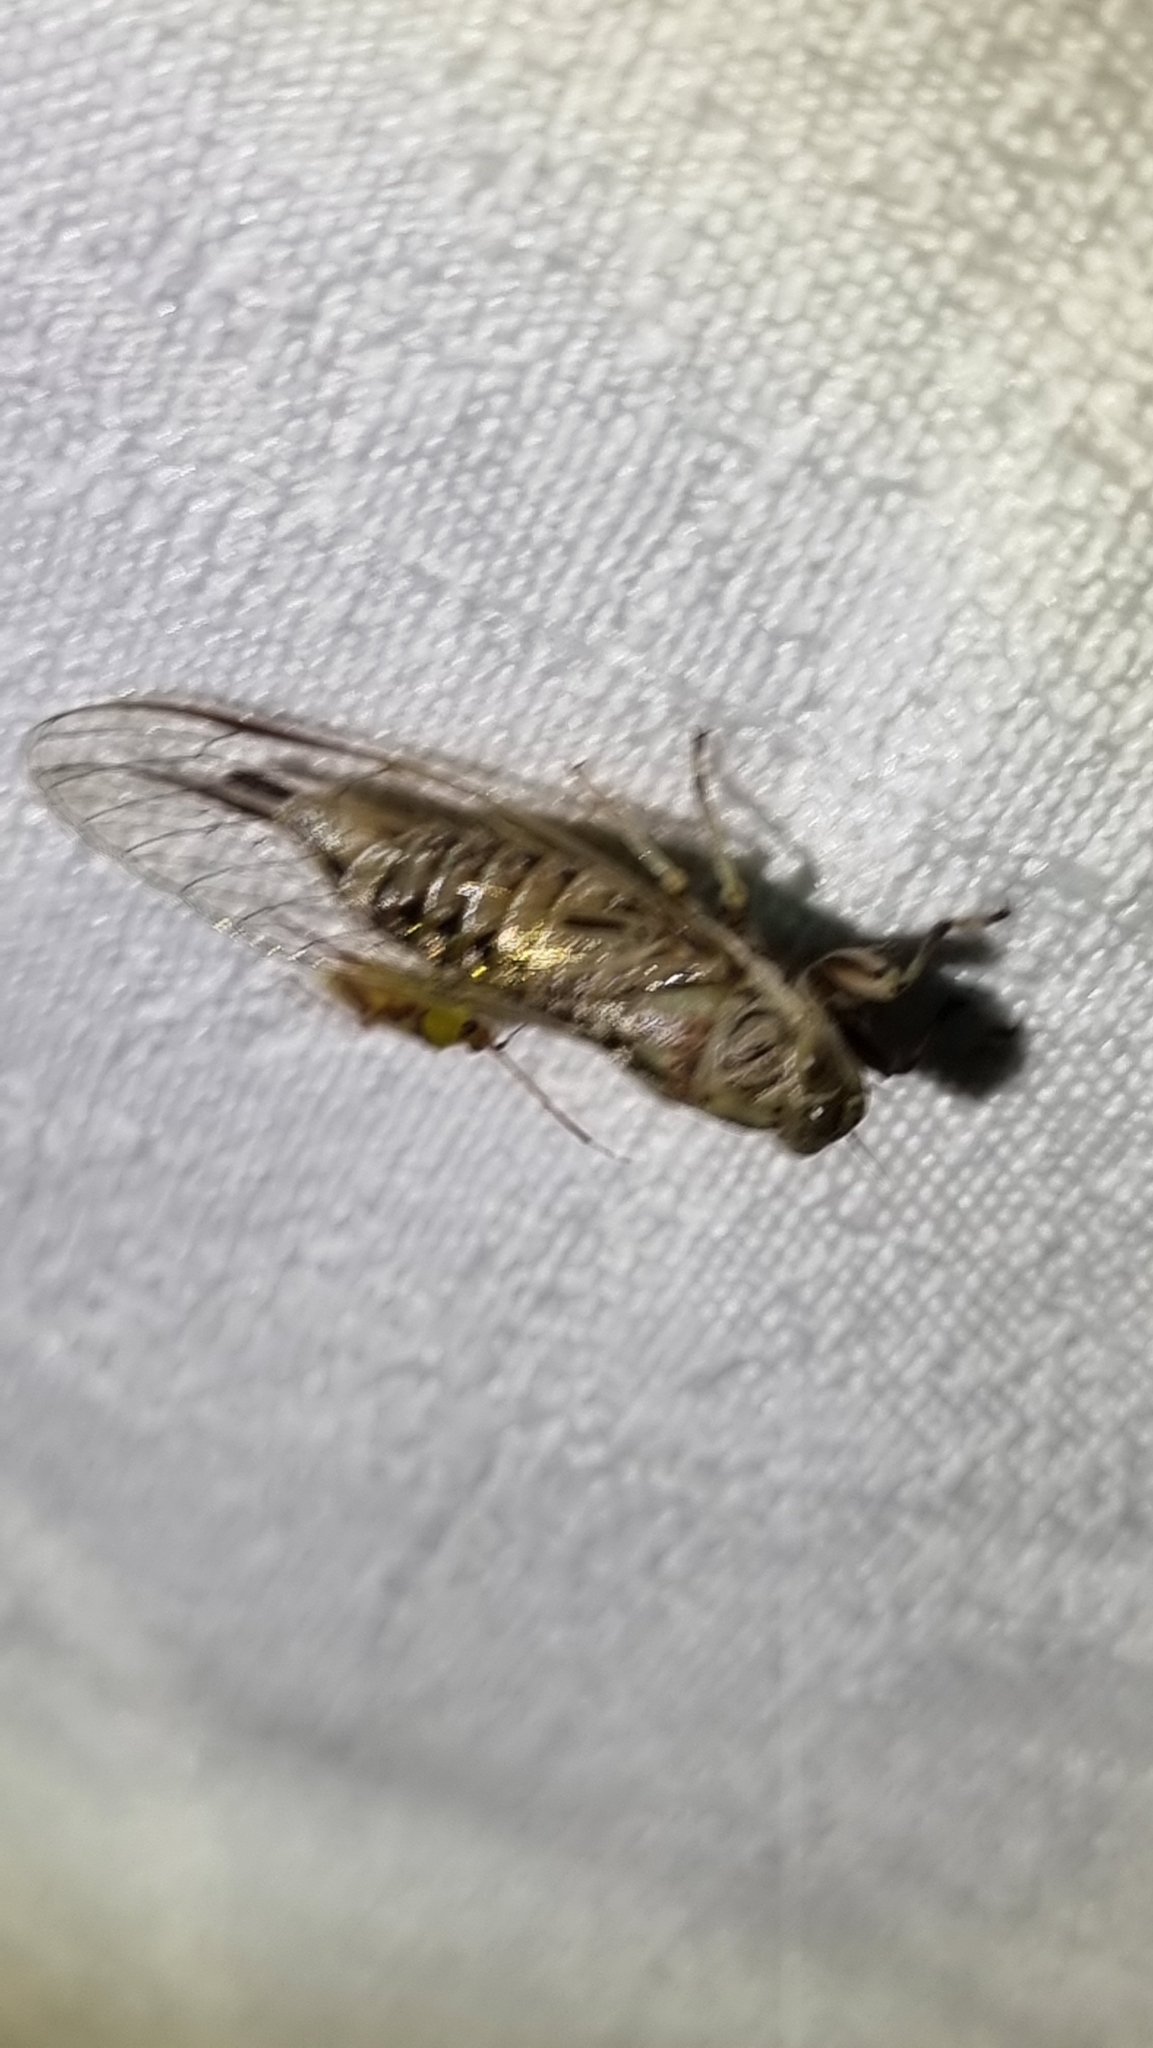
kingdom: Animalia
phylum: Arthropoda
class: Insecta
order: Hemiptera
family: Cicadidae
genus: Telmapsalta
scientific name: Telmapsalta hackeri
